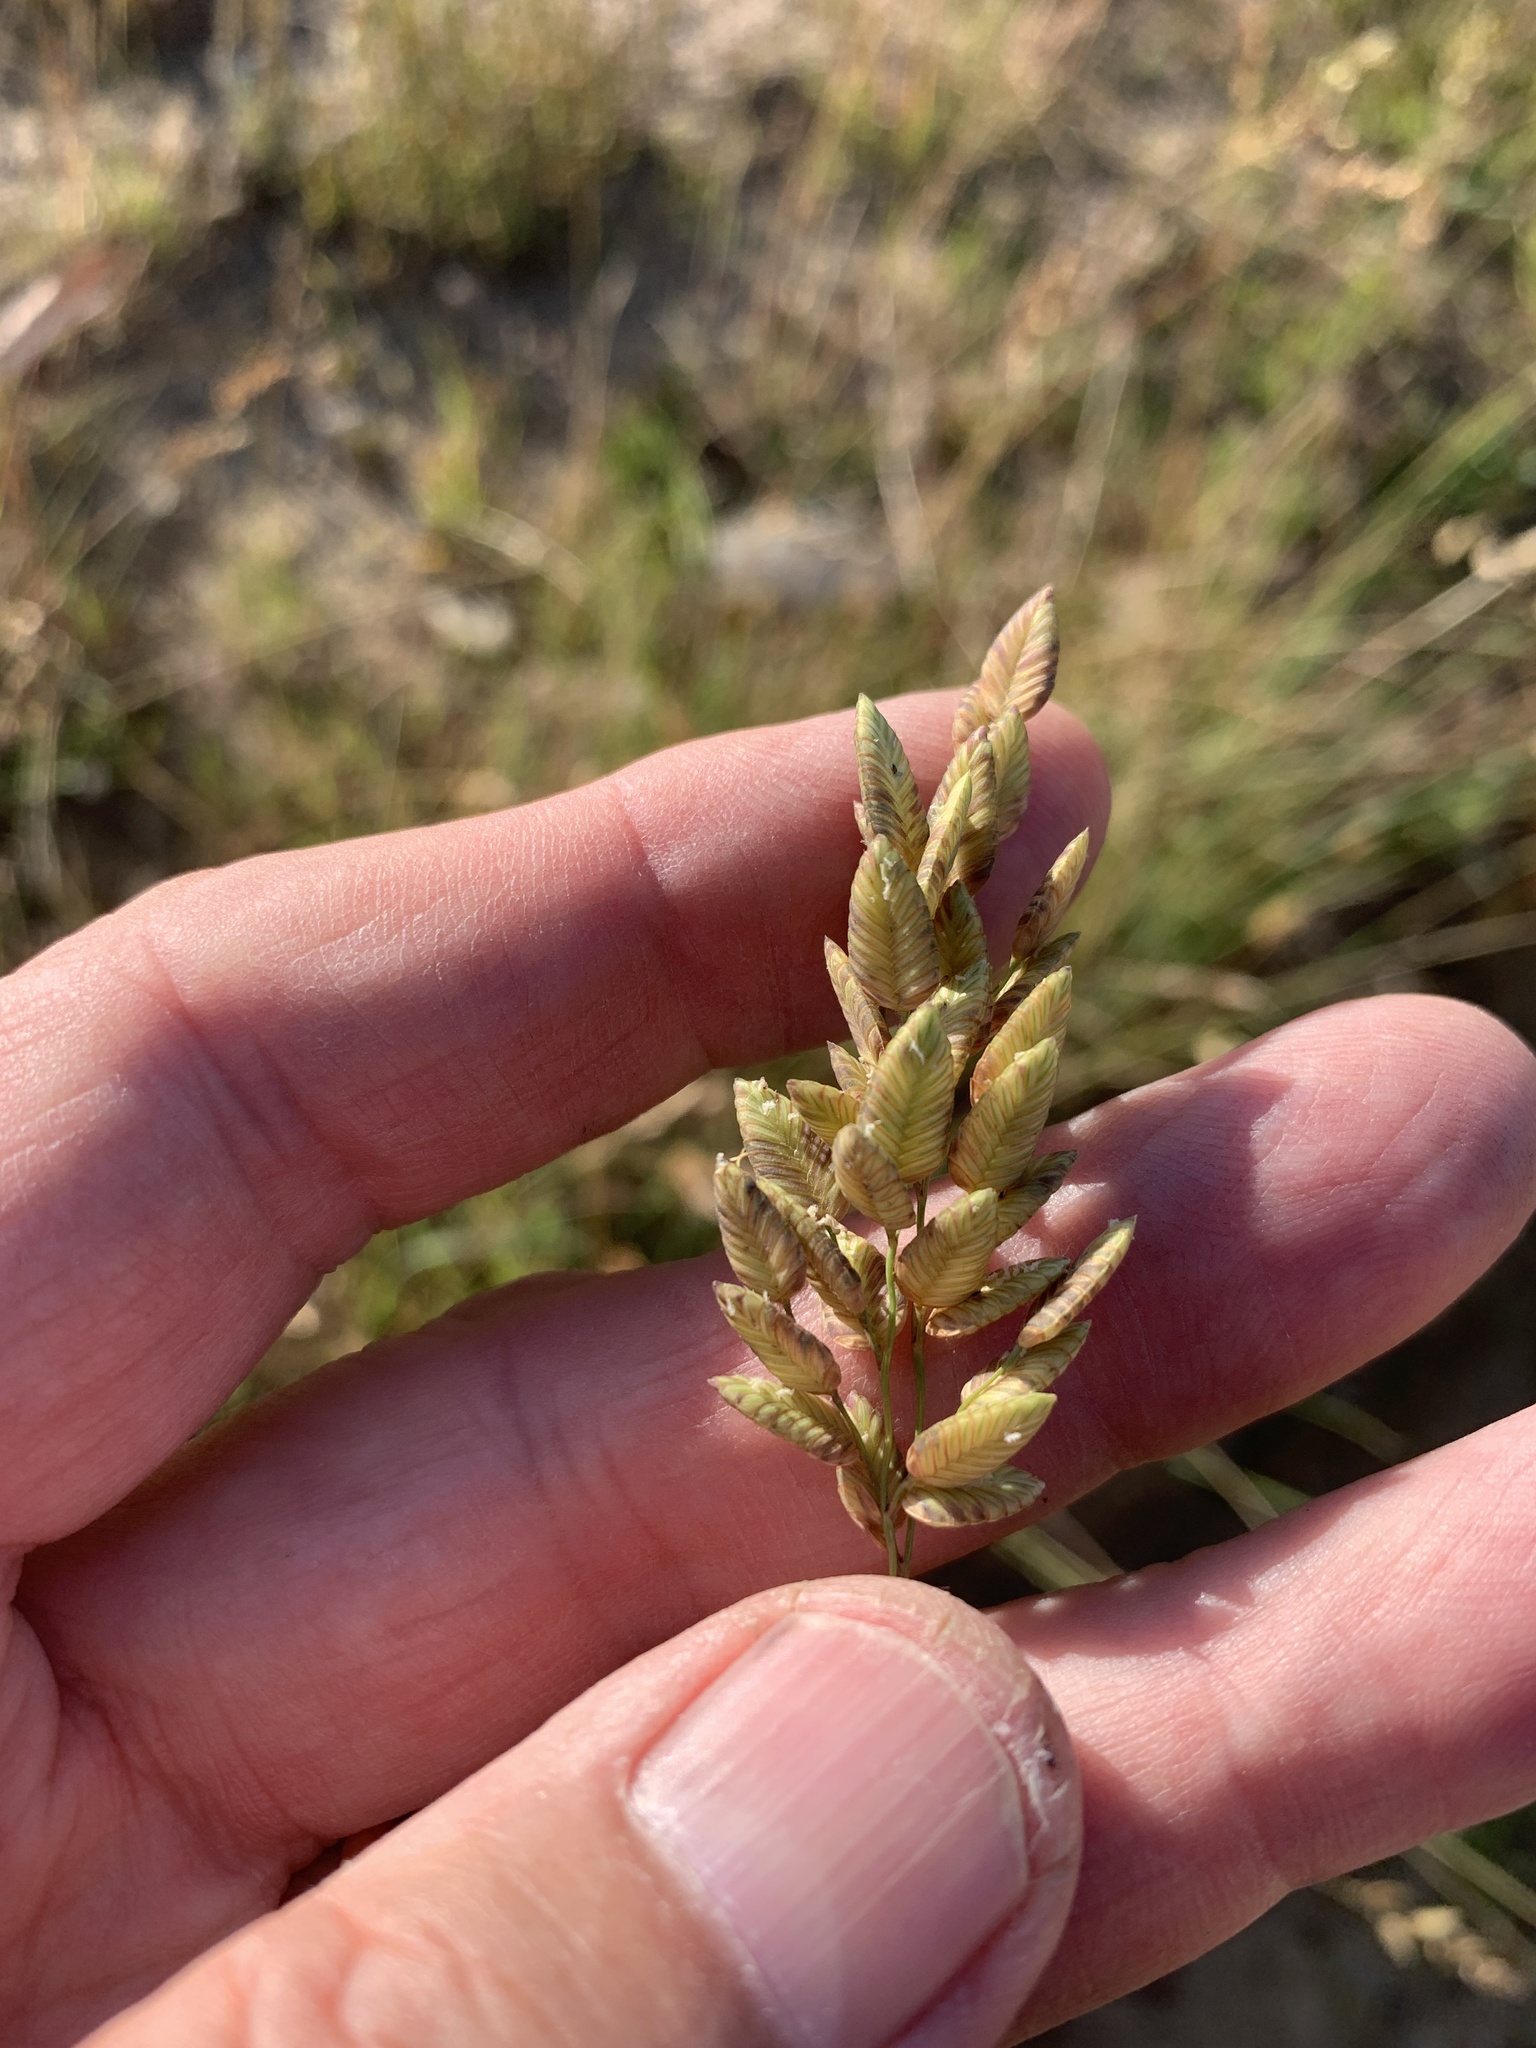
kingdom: Plantae
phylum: Tracheophyta
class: Liliopsida
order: Poales
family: Poaceae
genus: Eragrostis
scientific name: Eragrostis capensis
